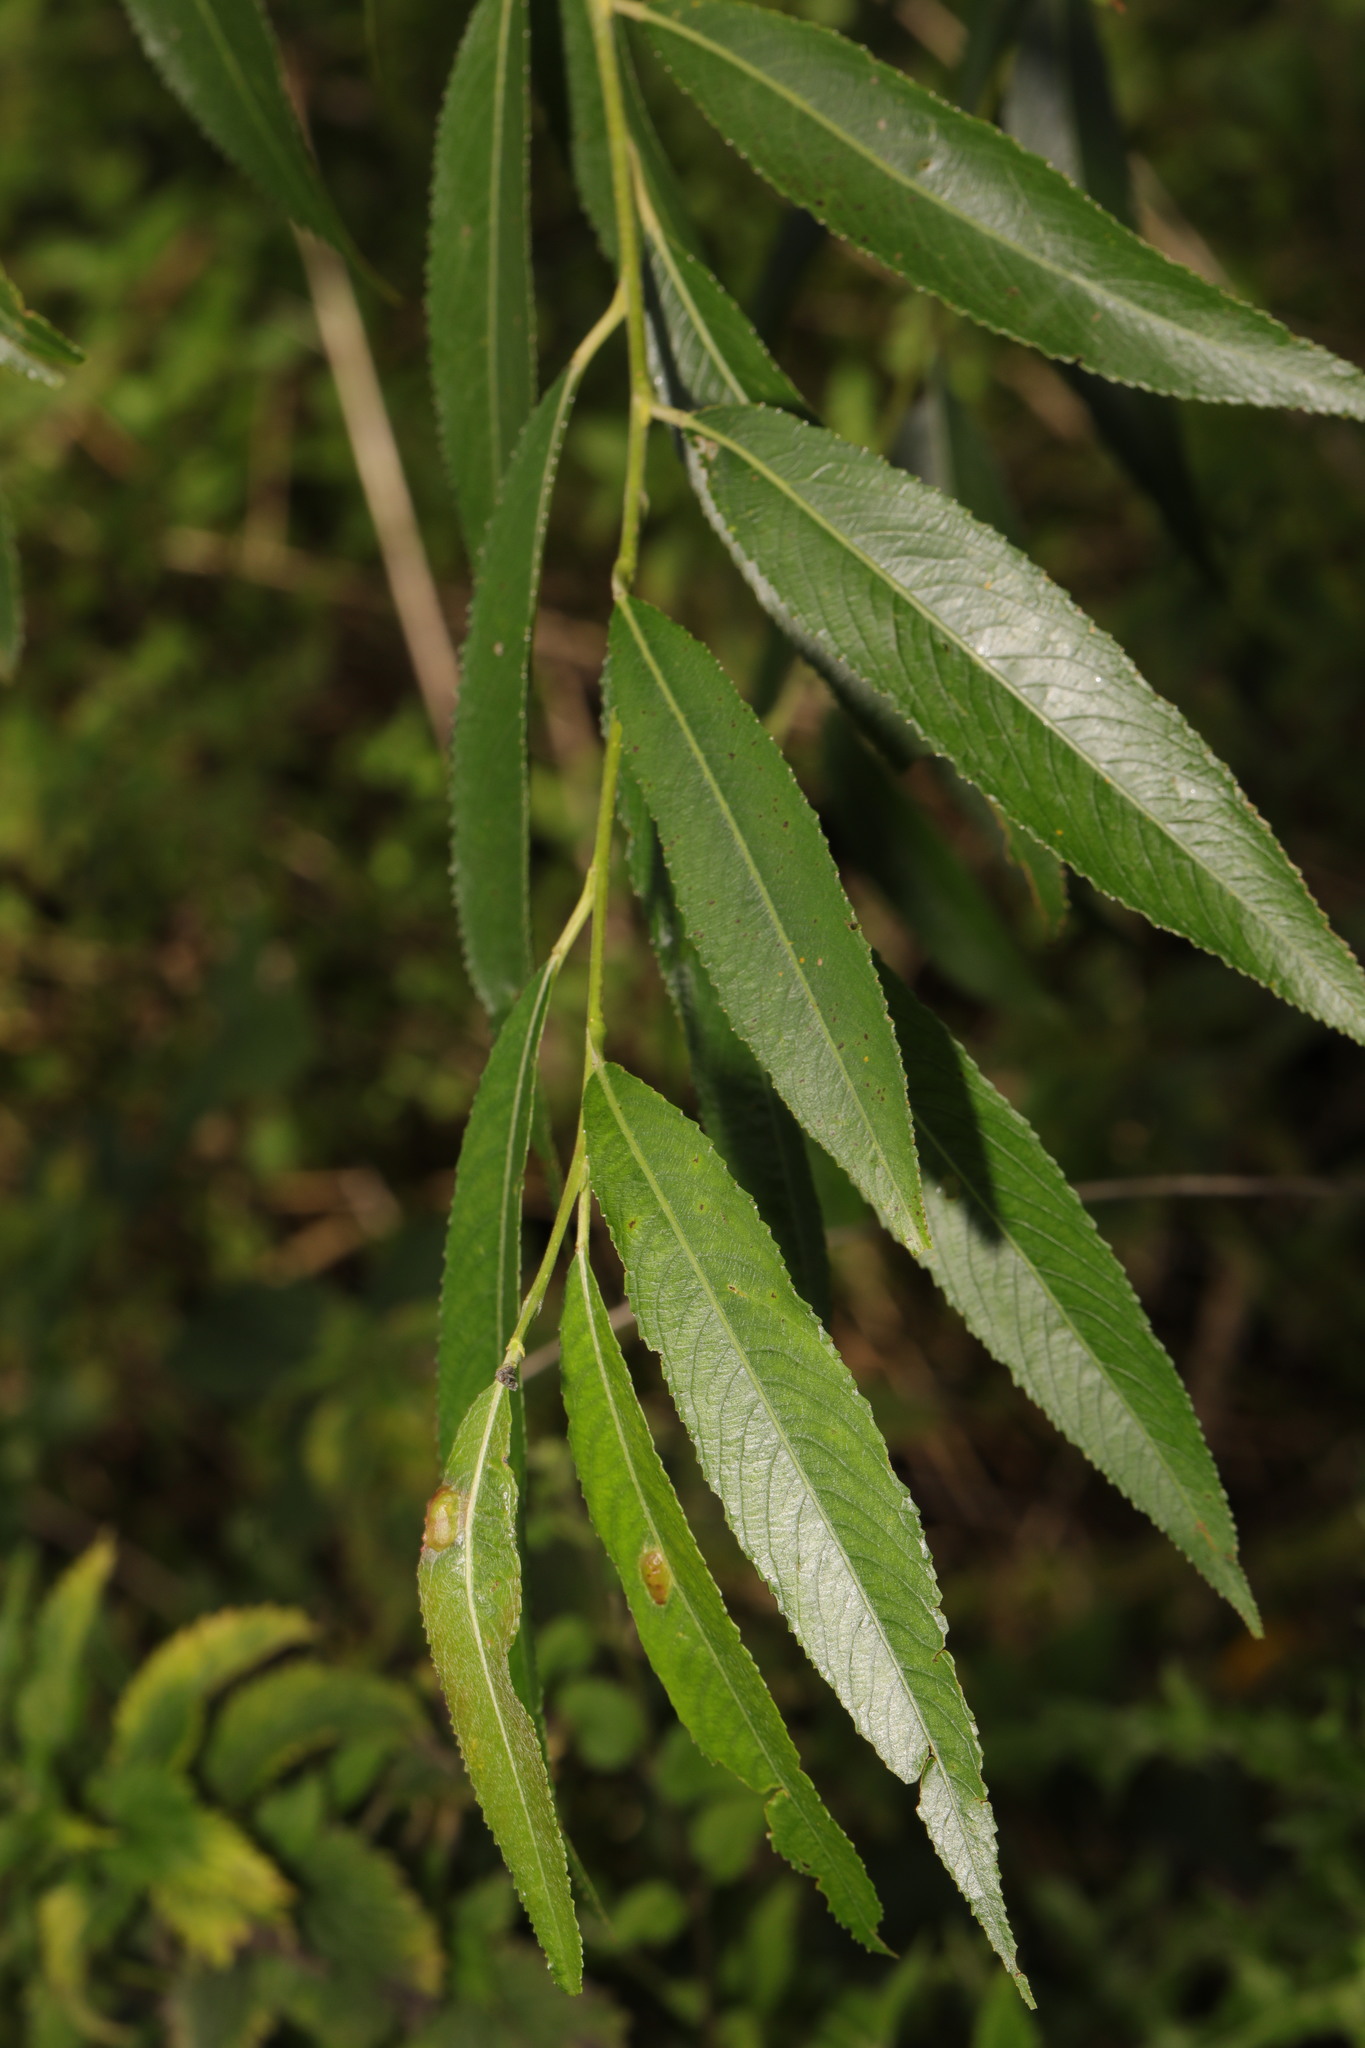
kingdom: Plantae
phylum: Tracheophyta
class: Magnoliopsida
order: Malpighiales
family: Salicaceae
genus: Salix
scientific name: Salix fragilis
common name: Crack willow
